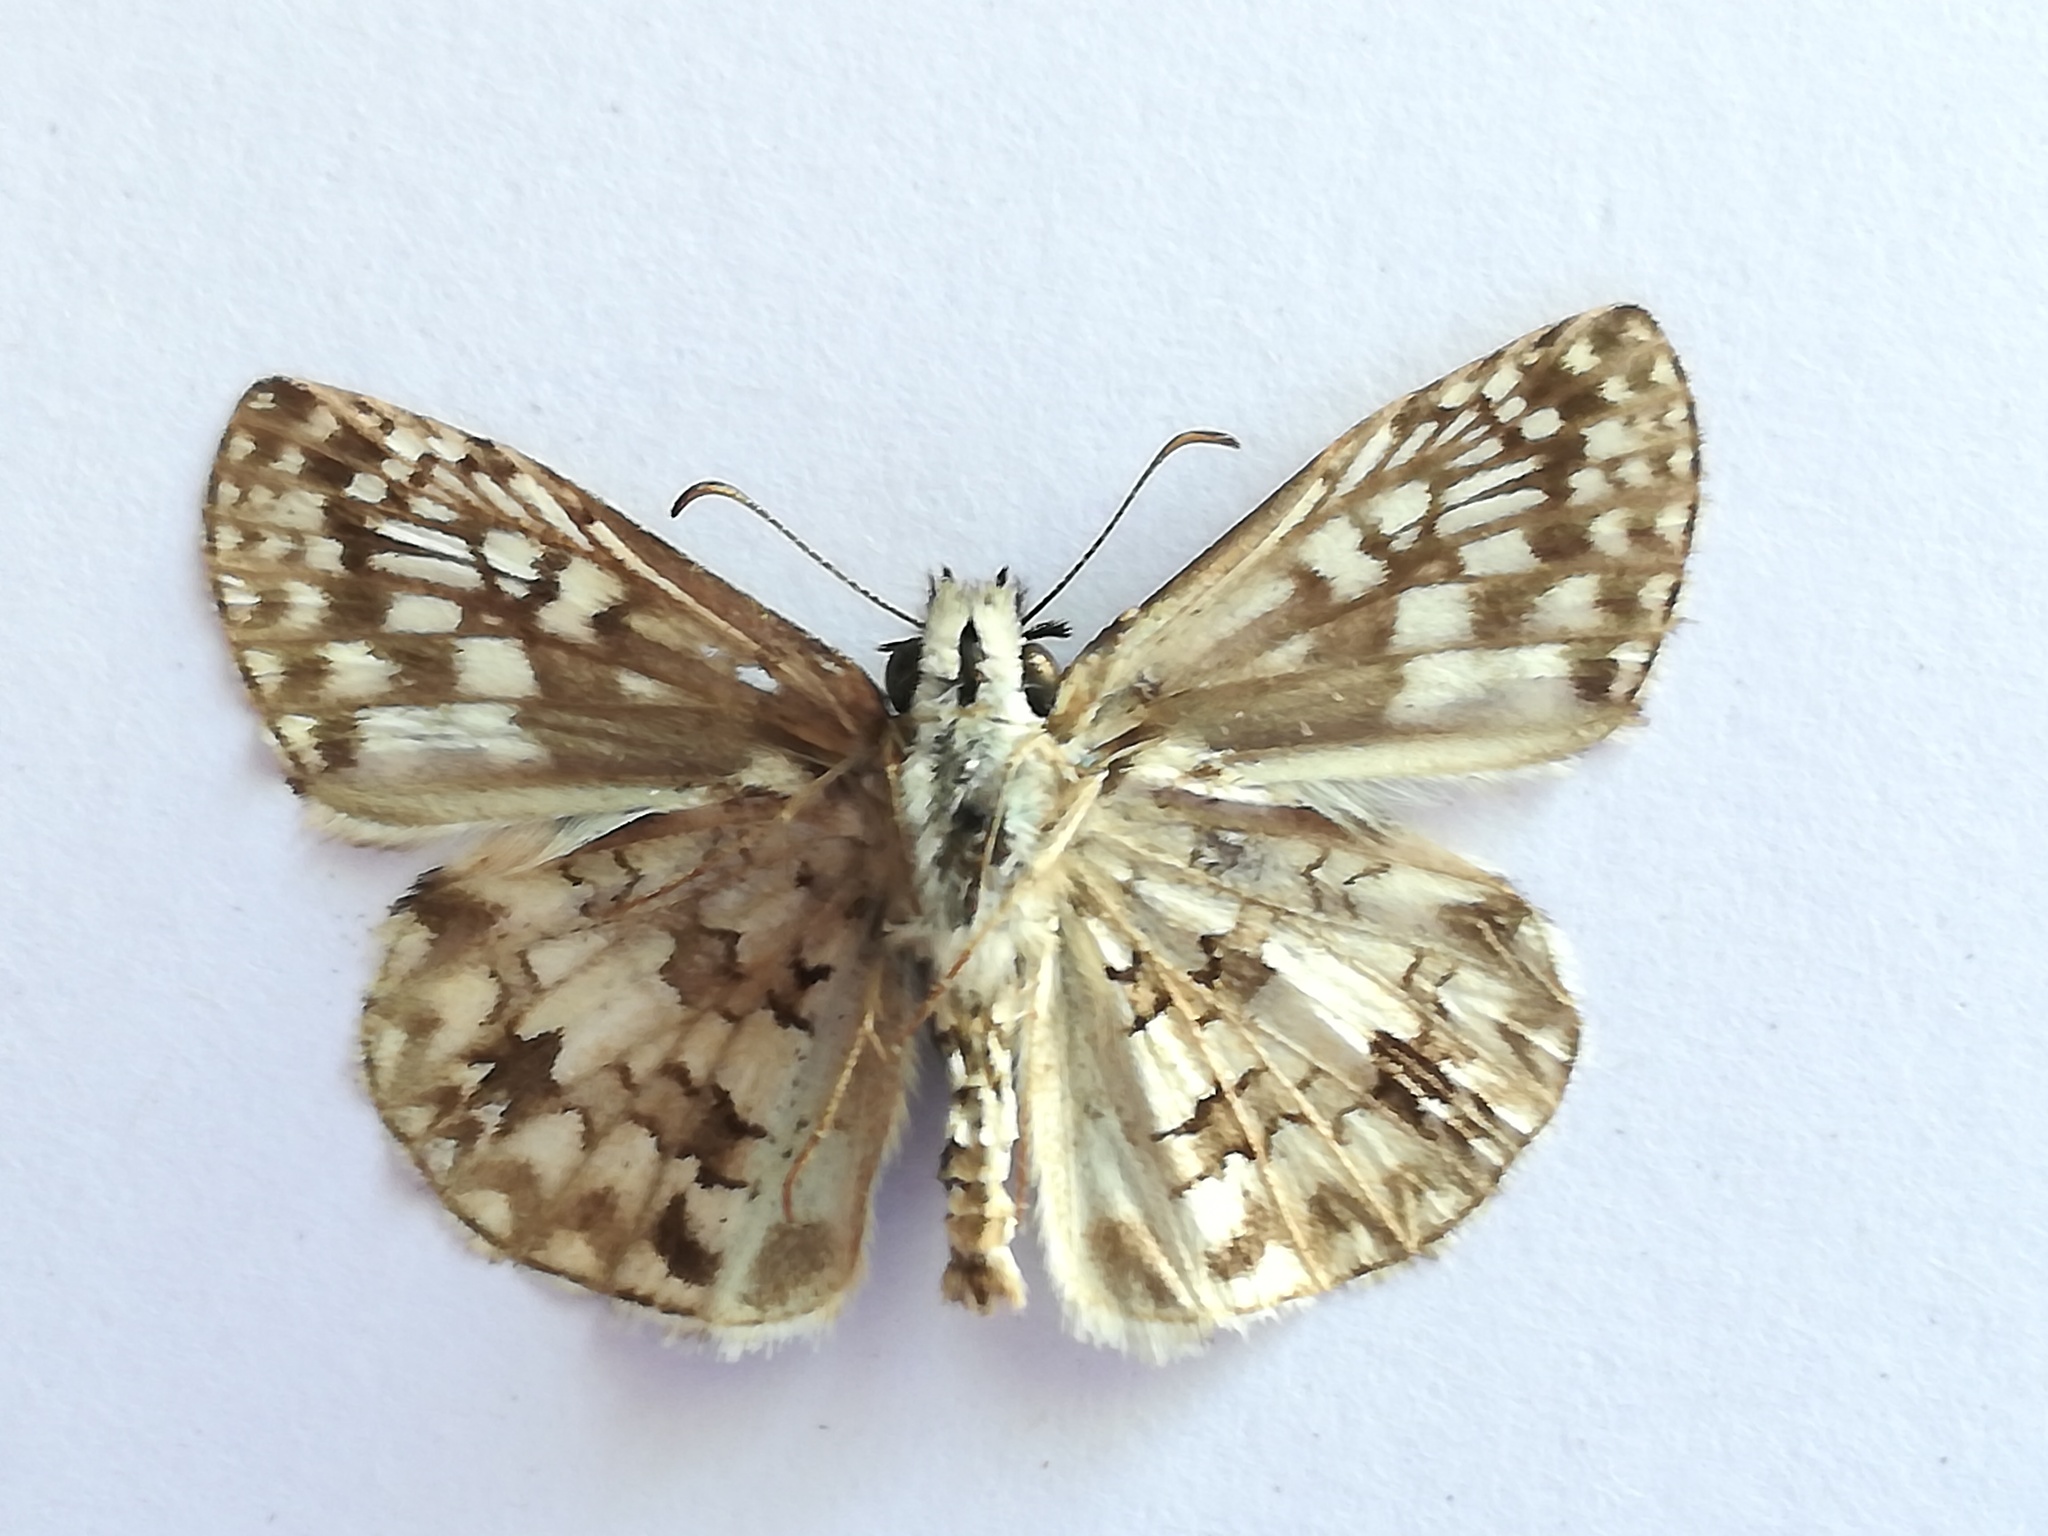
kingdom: Animalia
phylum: Arthropoda
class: Insecta
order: Lepidoptera
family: Hesperiidae
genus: Pyrgus
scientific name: Pyrgus oileus
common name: Tropical checkered-skipper
